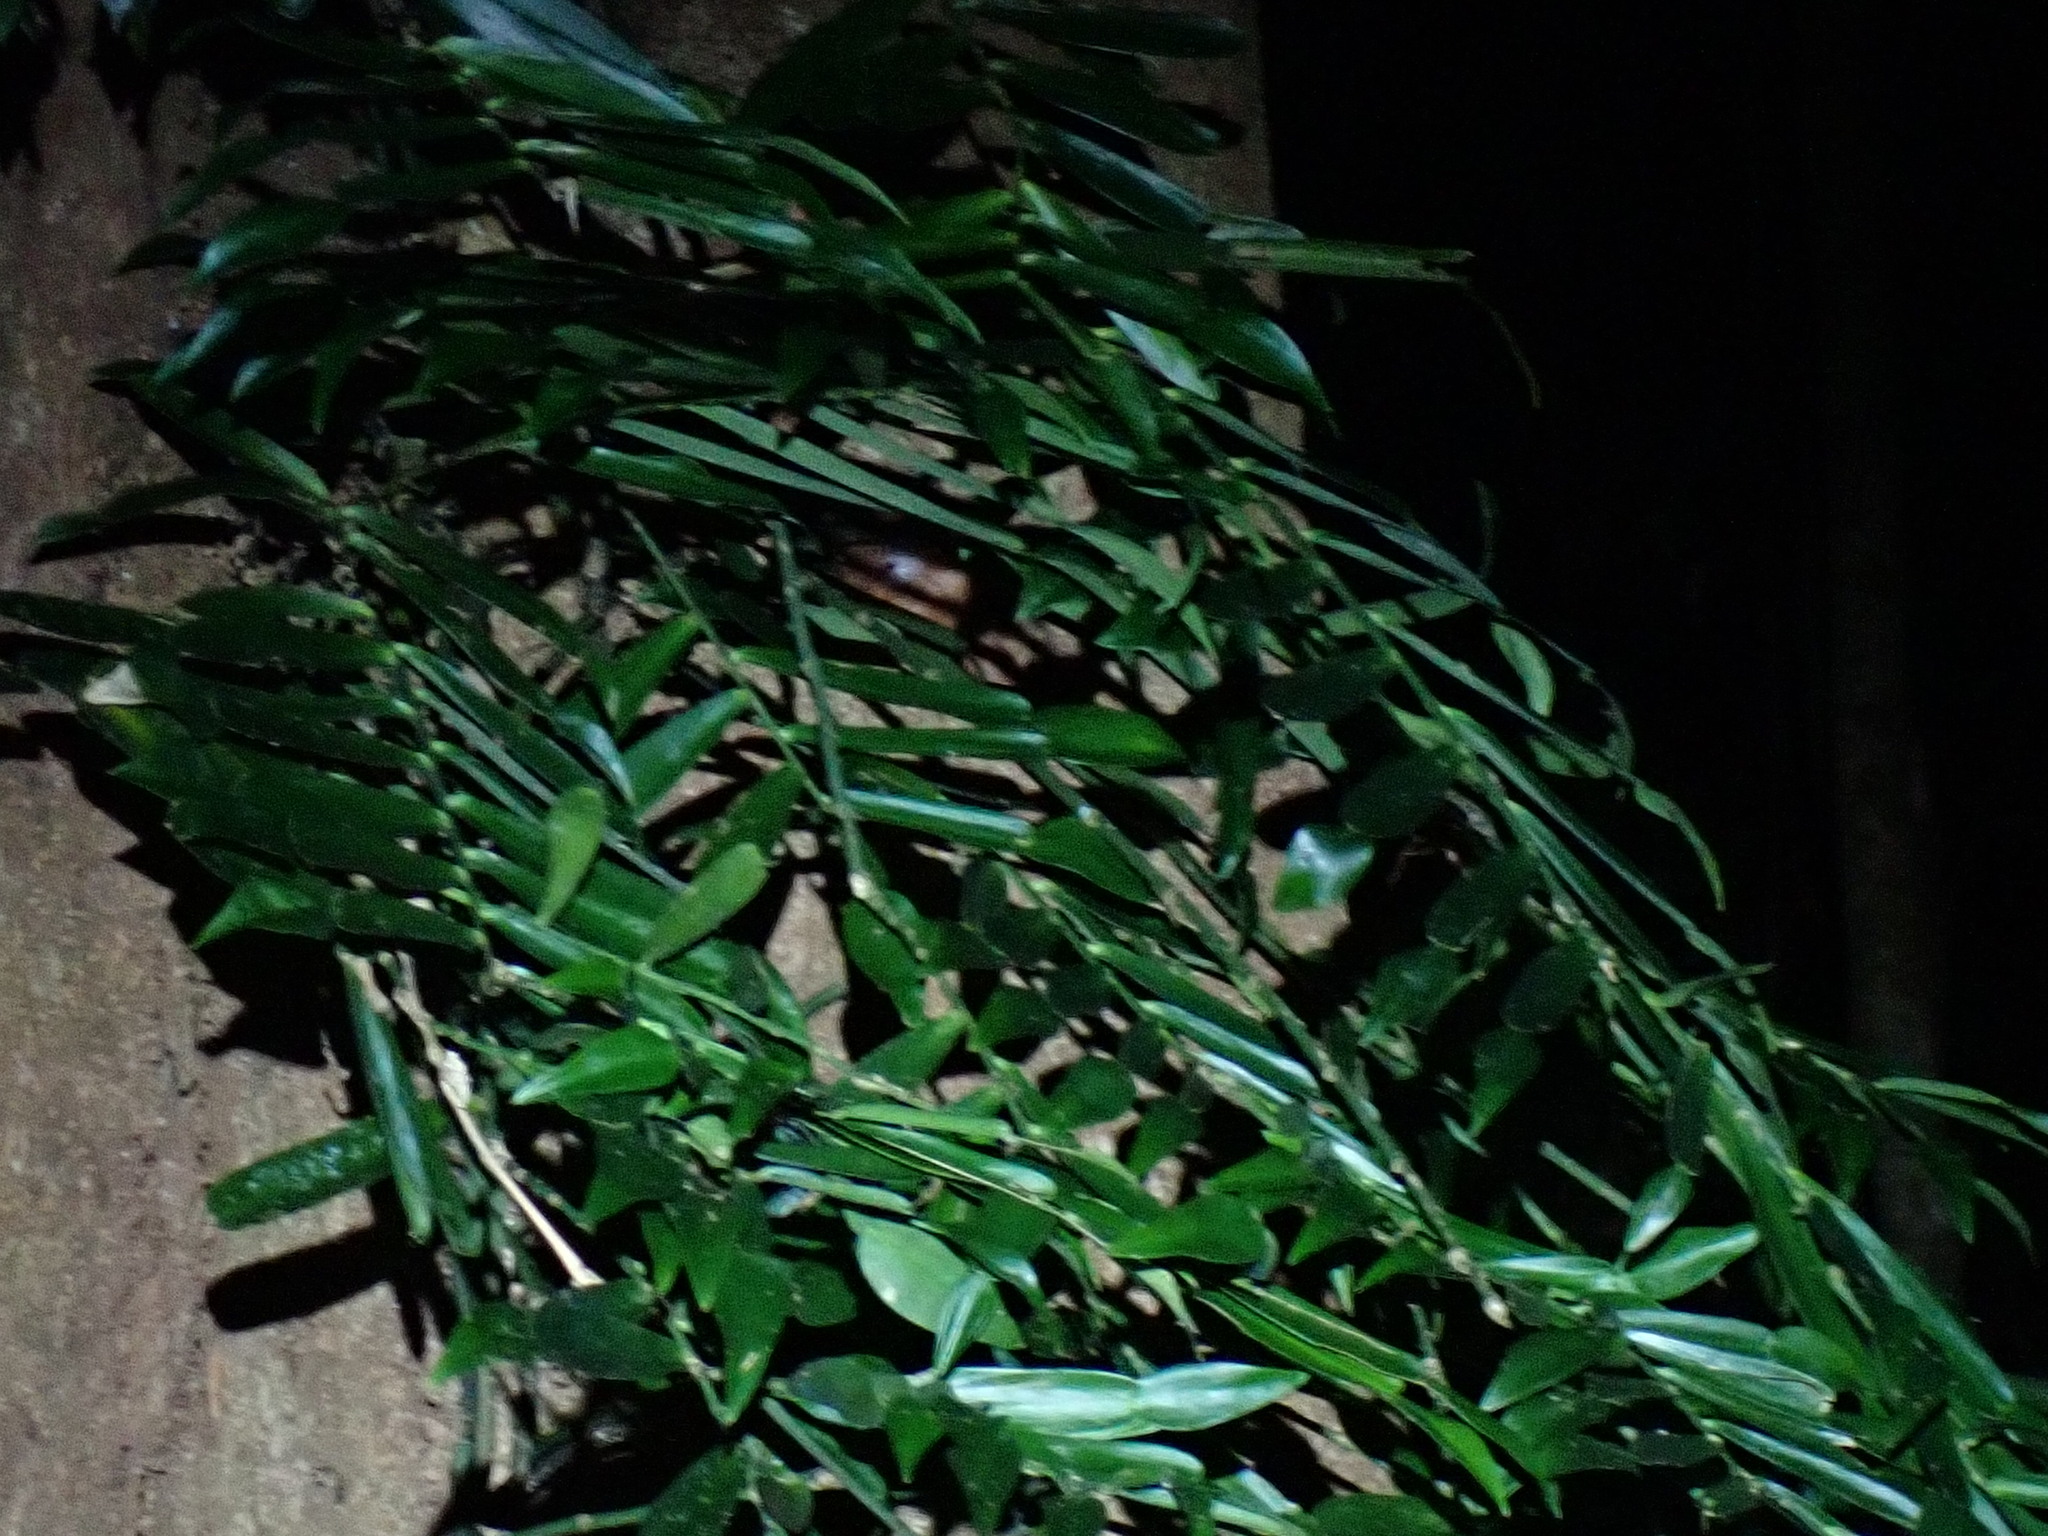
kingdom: Plantae
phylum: Tracheophyta
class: Liliopsida
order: Alismatales
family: Araceae
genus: Pothos
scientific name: Pothos longipes
